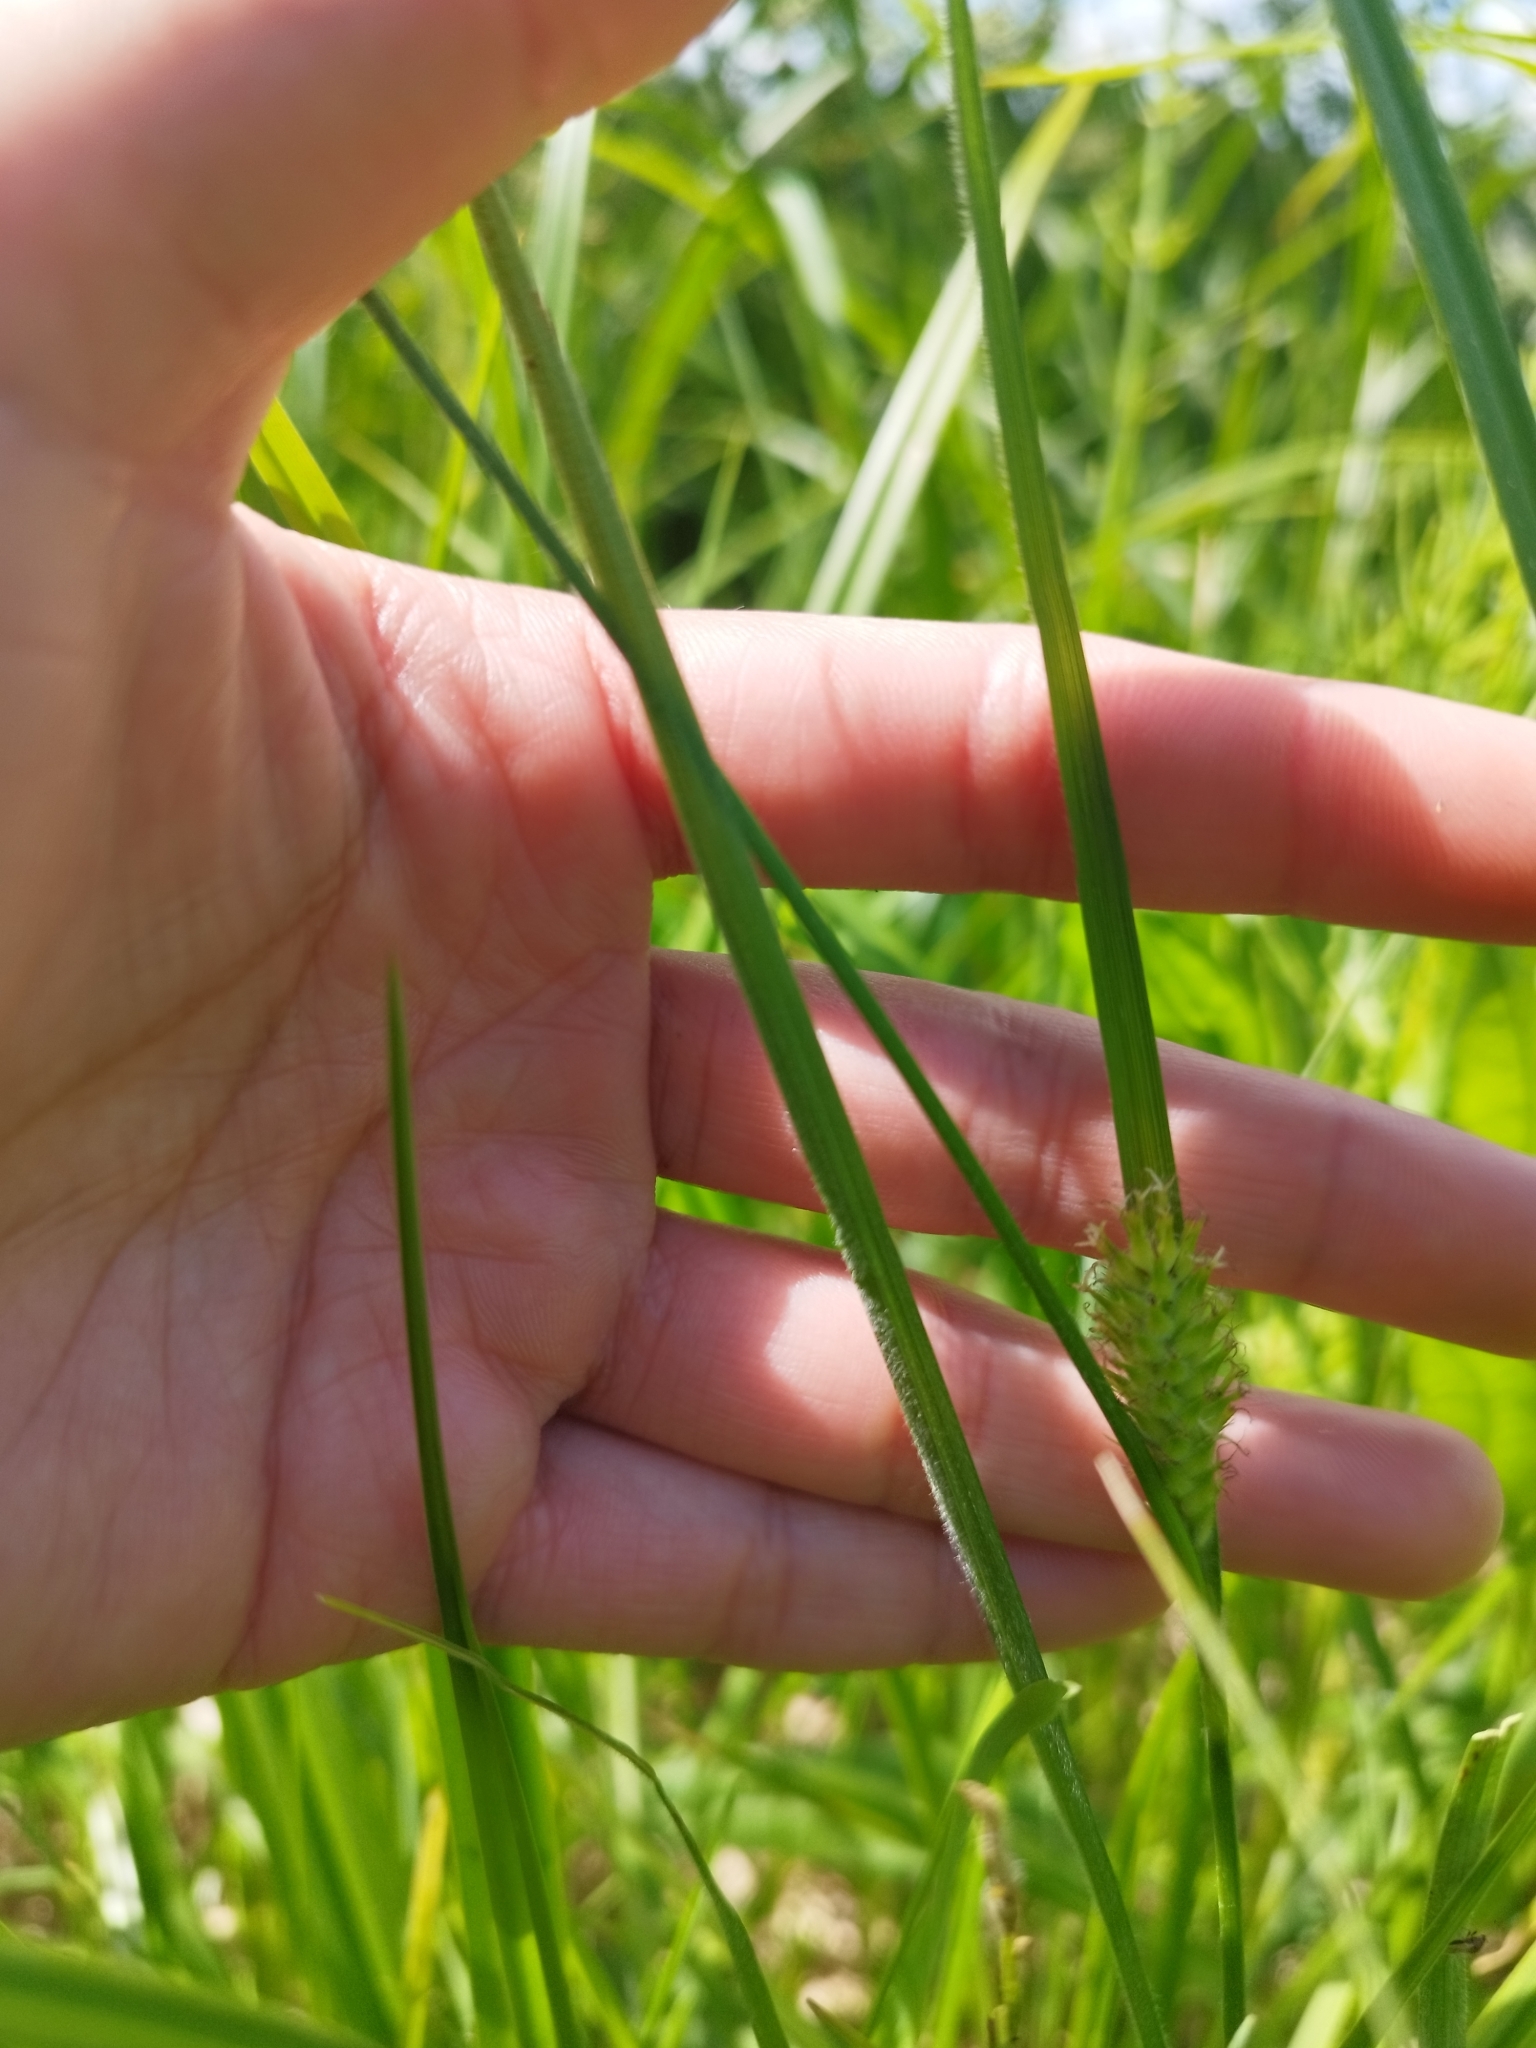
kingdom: Plantae
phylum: Tracheophyta
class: Liliopsida
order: Poales
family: Cyperaceae
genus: Carex
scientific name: Carex hirta
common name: Hairy sedge
